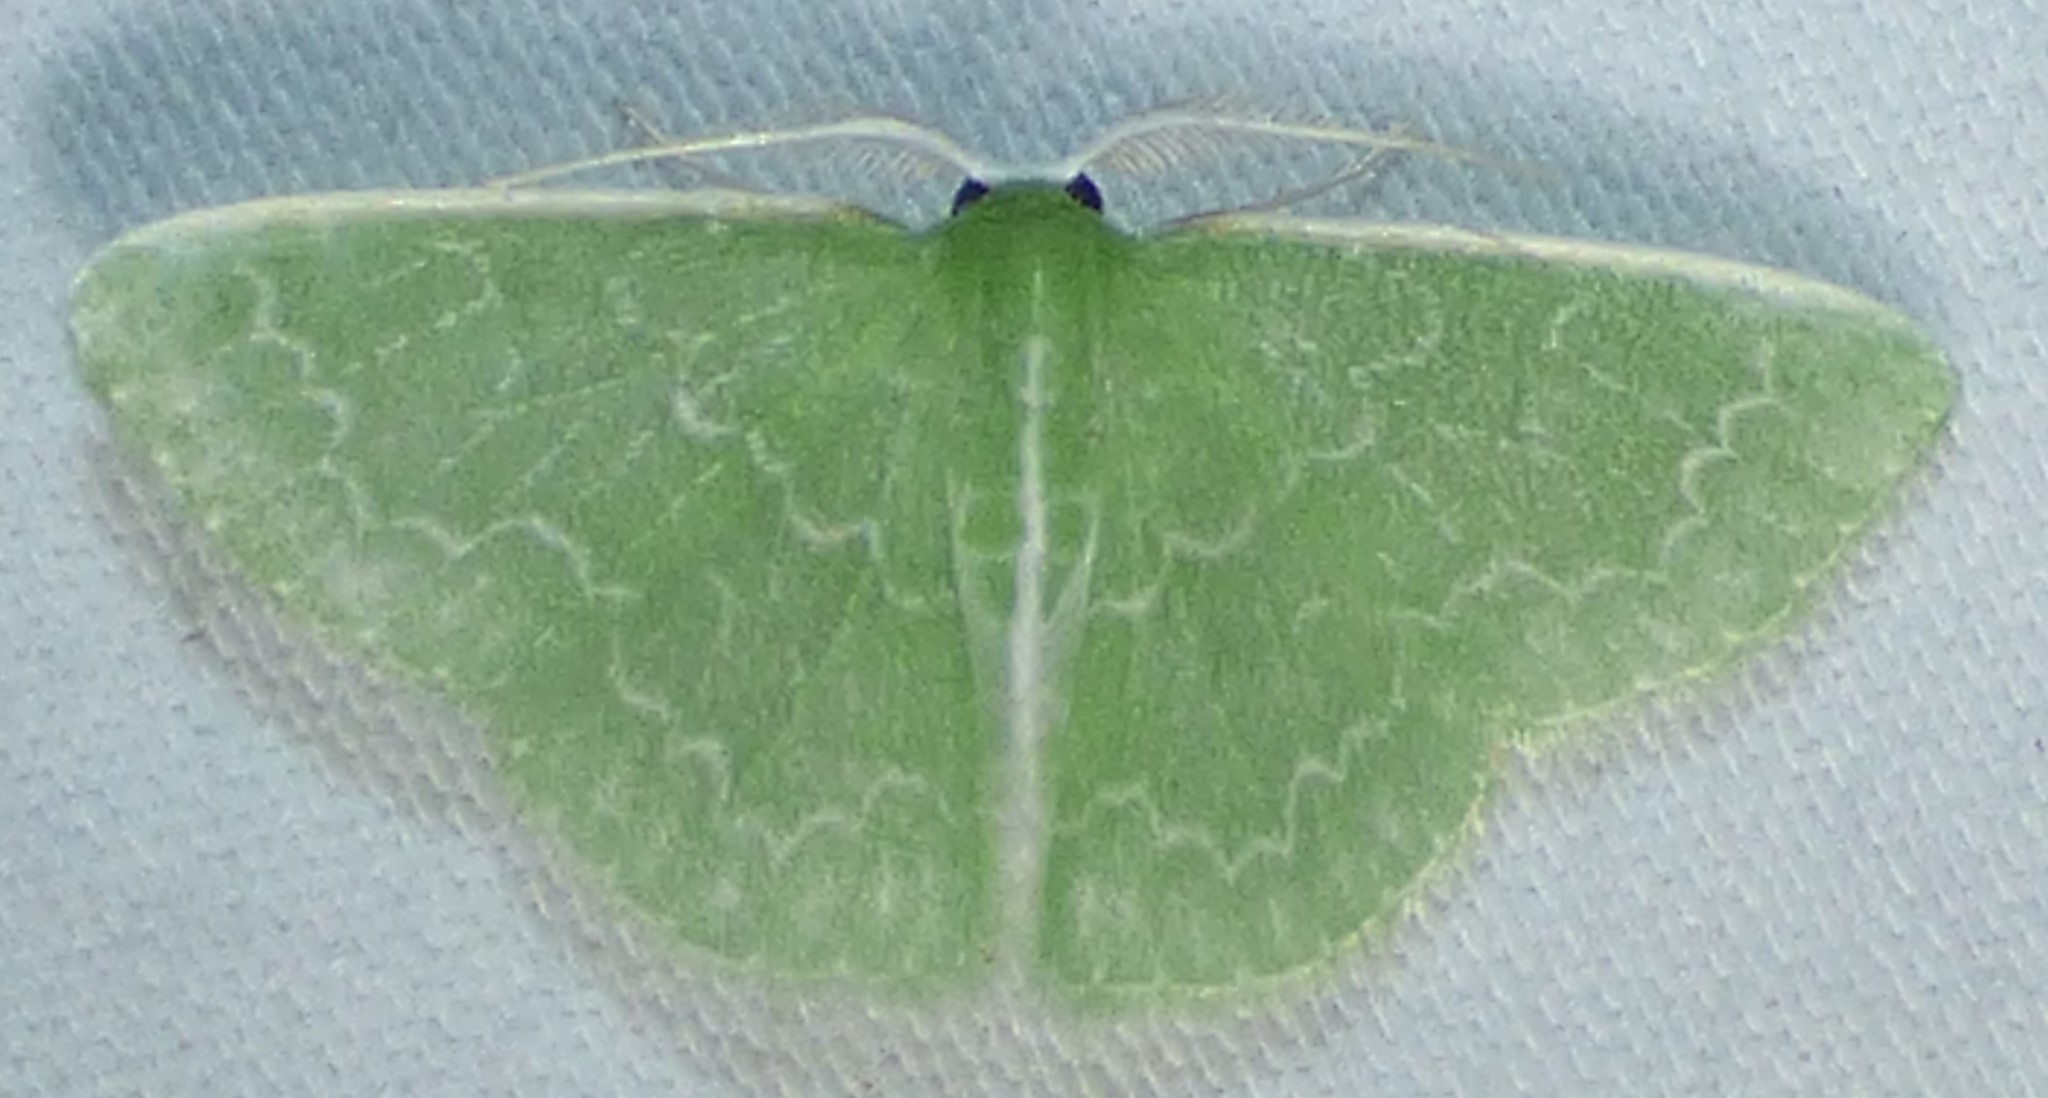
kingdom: Animalia
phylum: Arthropoda
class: Insecta
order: Lepidoptera
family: Geometridae
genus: Synchlora
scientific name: Synchlora frondaria
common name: Southern emerald
